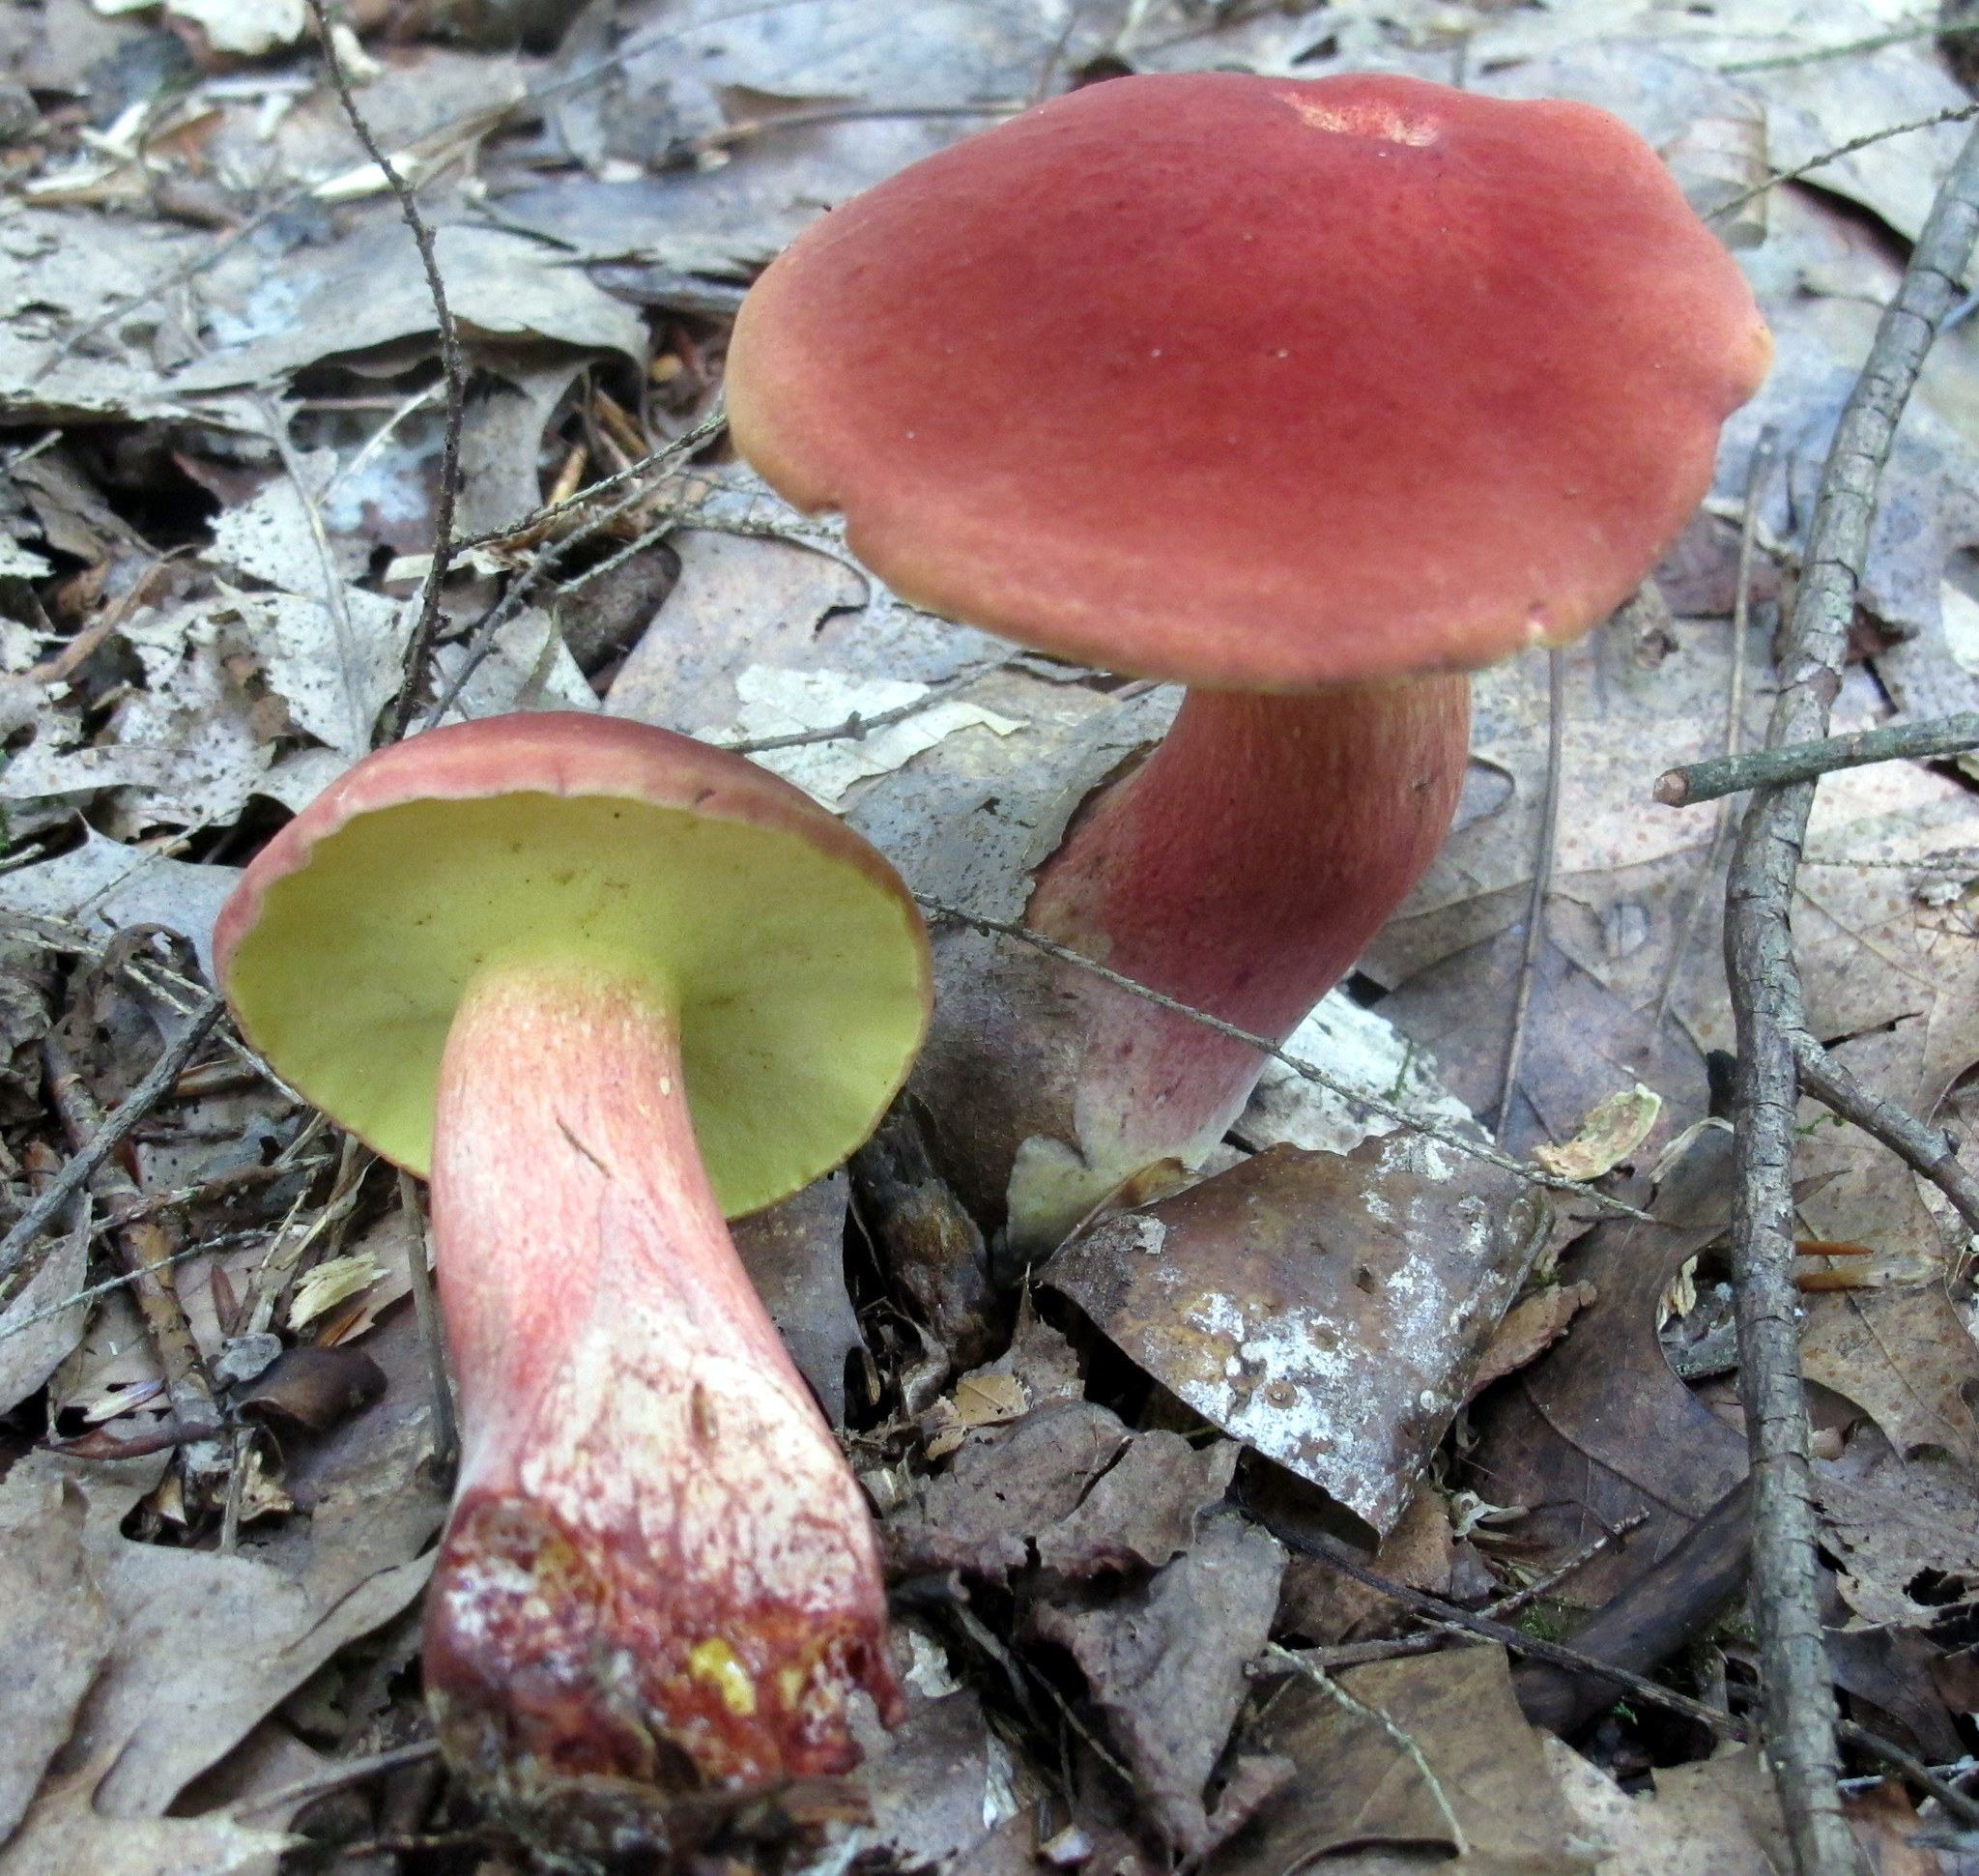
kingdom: Fungi
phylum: Basidiomycota
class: Agaricomycetes
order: Boletales
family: Boletaceae
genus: Baorangia
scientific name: Baorangia bicolor
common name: Two-colored bolete
